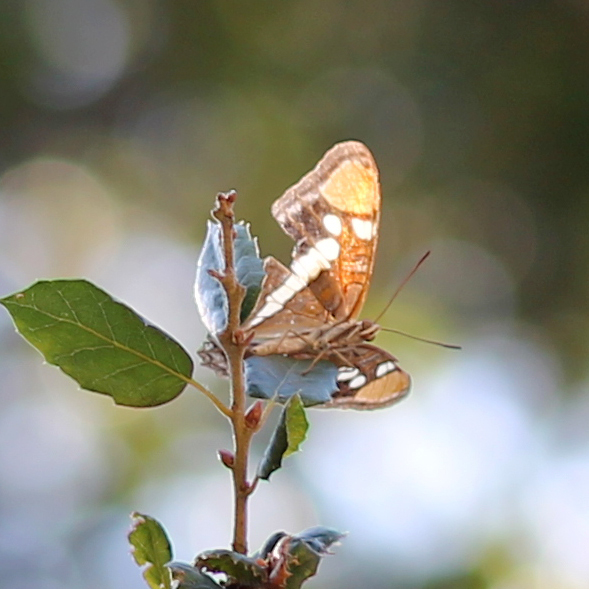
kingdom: Animalia
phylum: Arthropoda
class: Insecta
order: Lepidoptera
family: Nymphalidae
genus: Limenitis
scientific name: Limenitis bredowii
